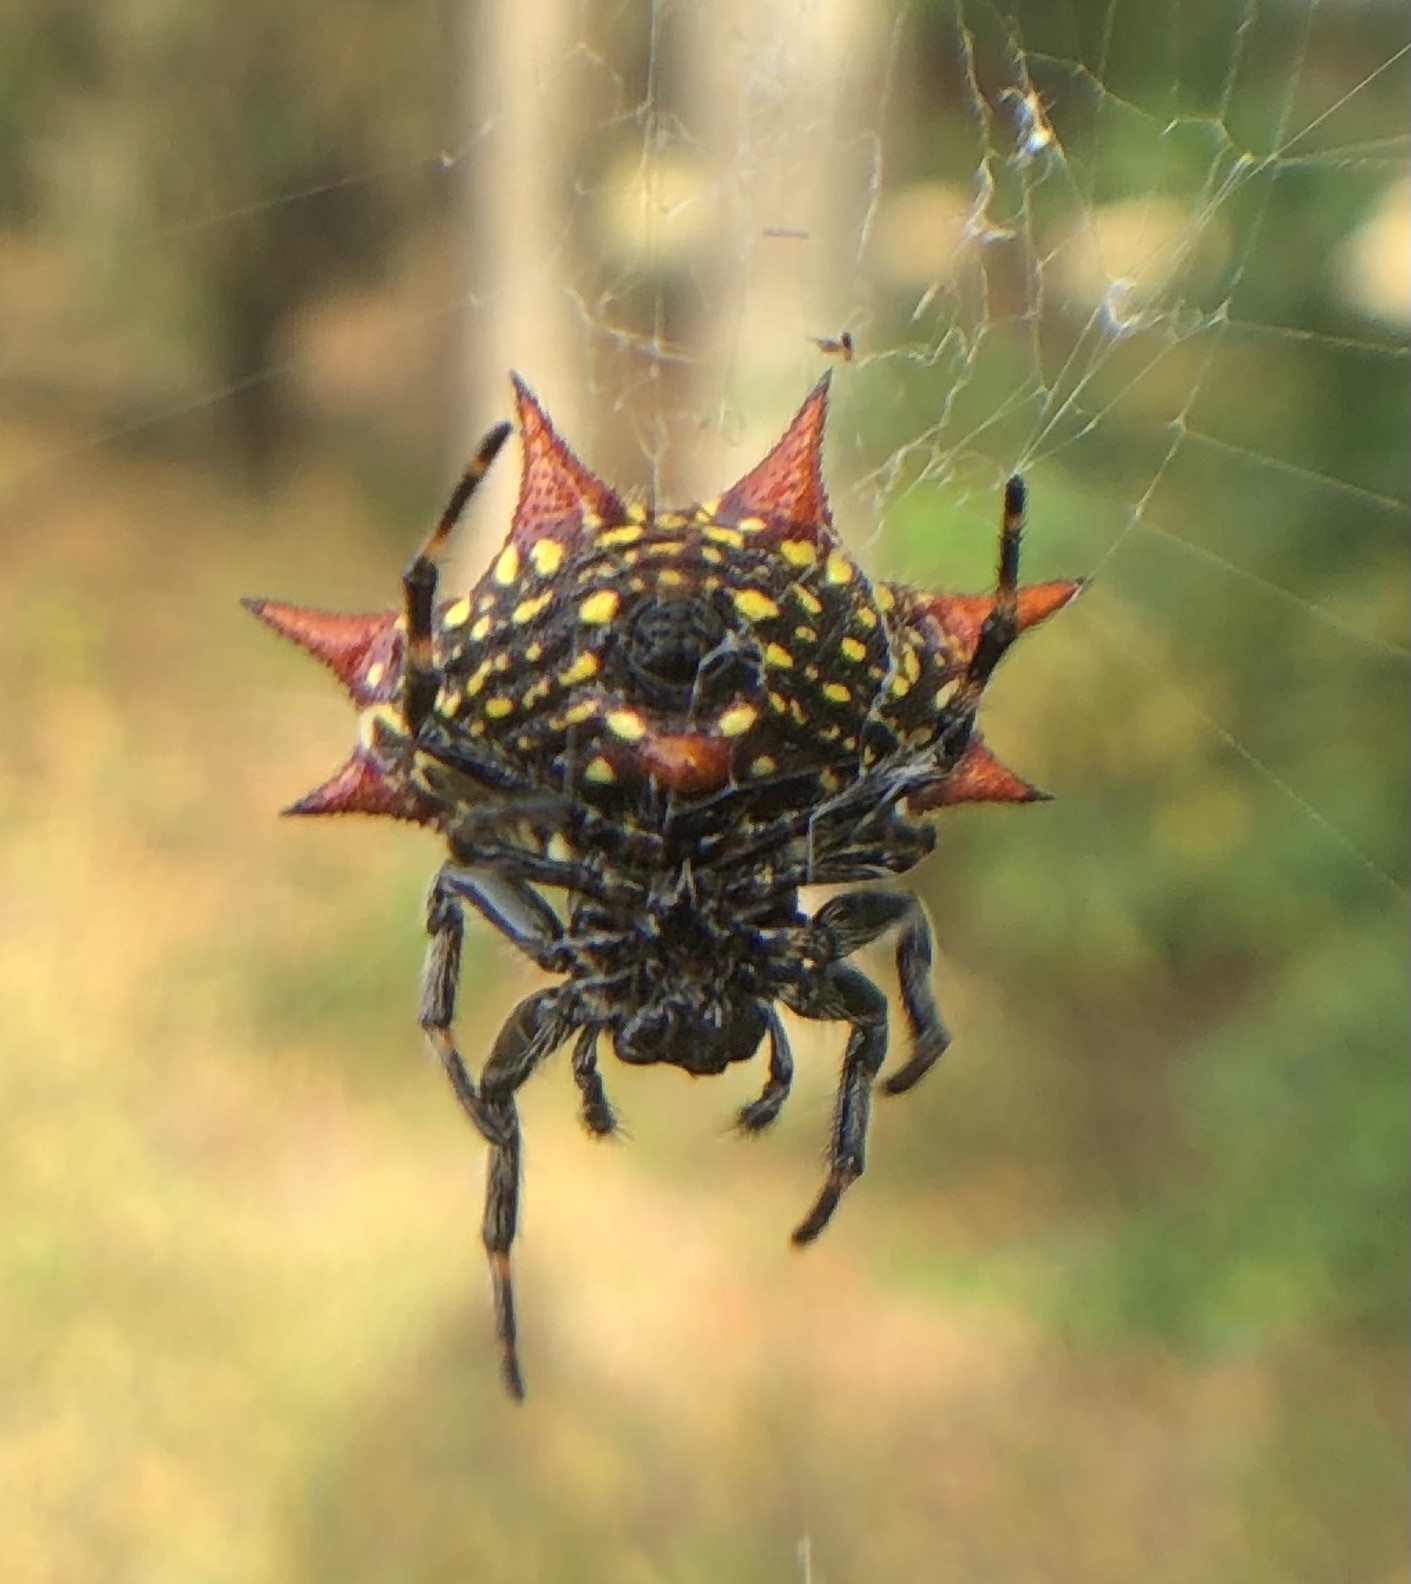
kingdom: Animalia
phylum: Arthropoda
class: Arachnida
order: Araneae
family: Araneidae
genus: Gasteracantha
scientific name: Gasteracantha cancriformis
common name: Orb weavers
